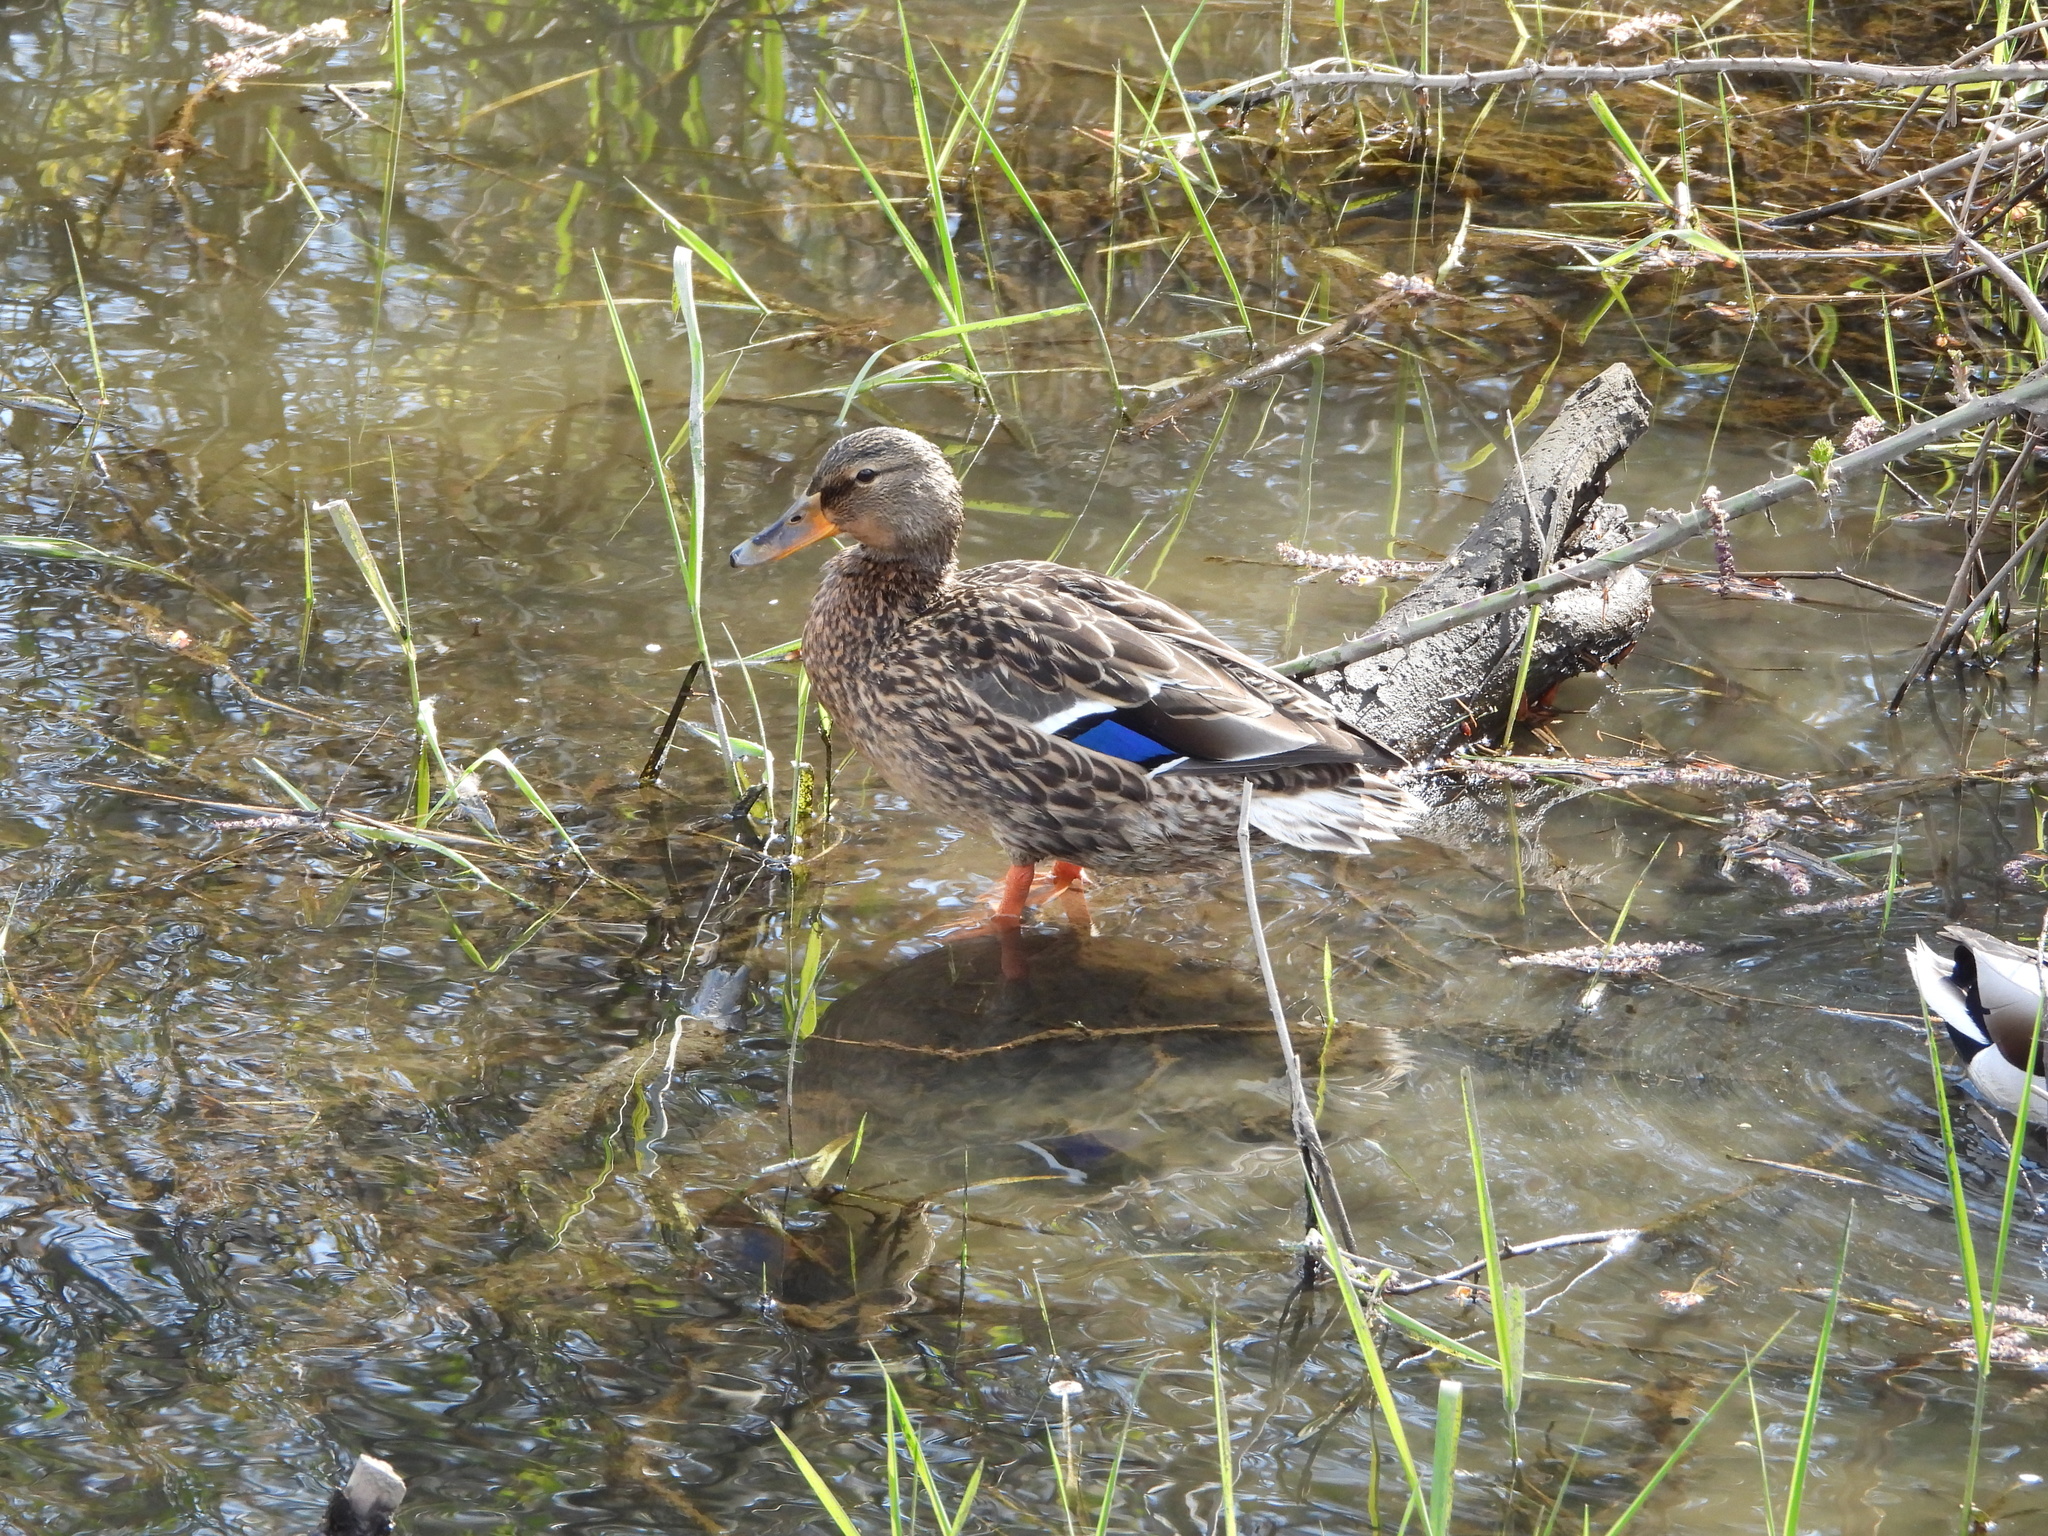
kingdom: Animalia
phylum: Chordata
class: Aves
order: Anseriformes
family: Anatidae
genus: Anas
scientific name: Anas platyrhynchos
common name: Mallard
